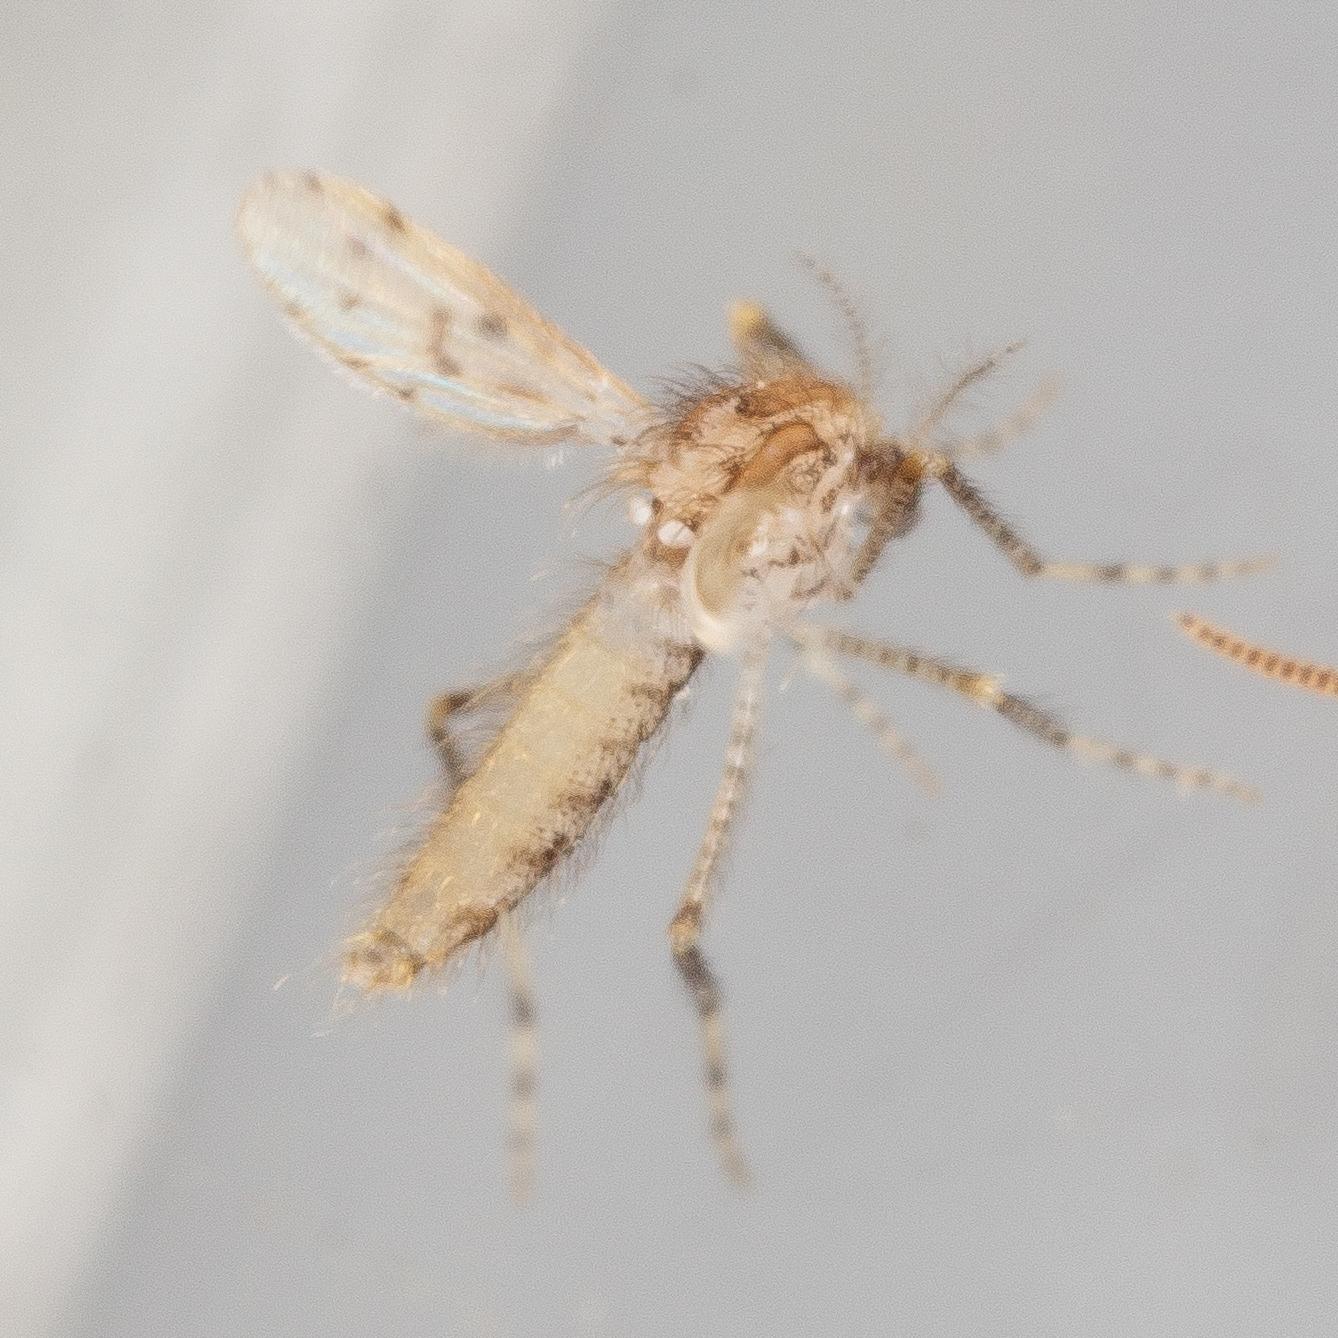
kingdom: Animalia
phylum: Arthropoda
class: Insecta
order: Diptera
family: Chaoboridae
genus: Chaoborus
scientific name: Chaoborus punctipennis
